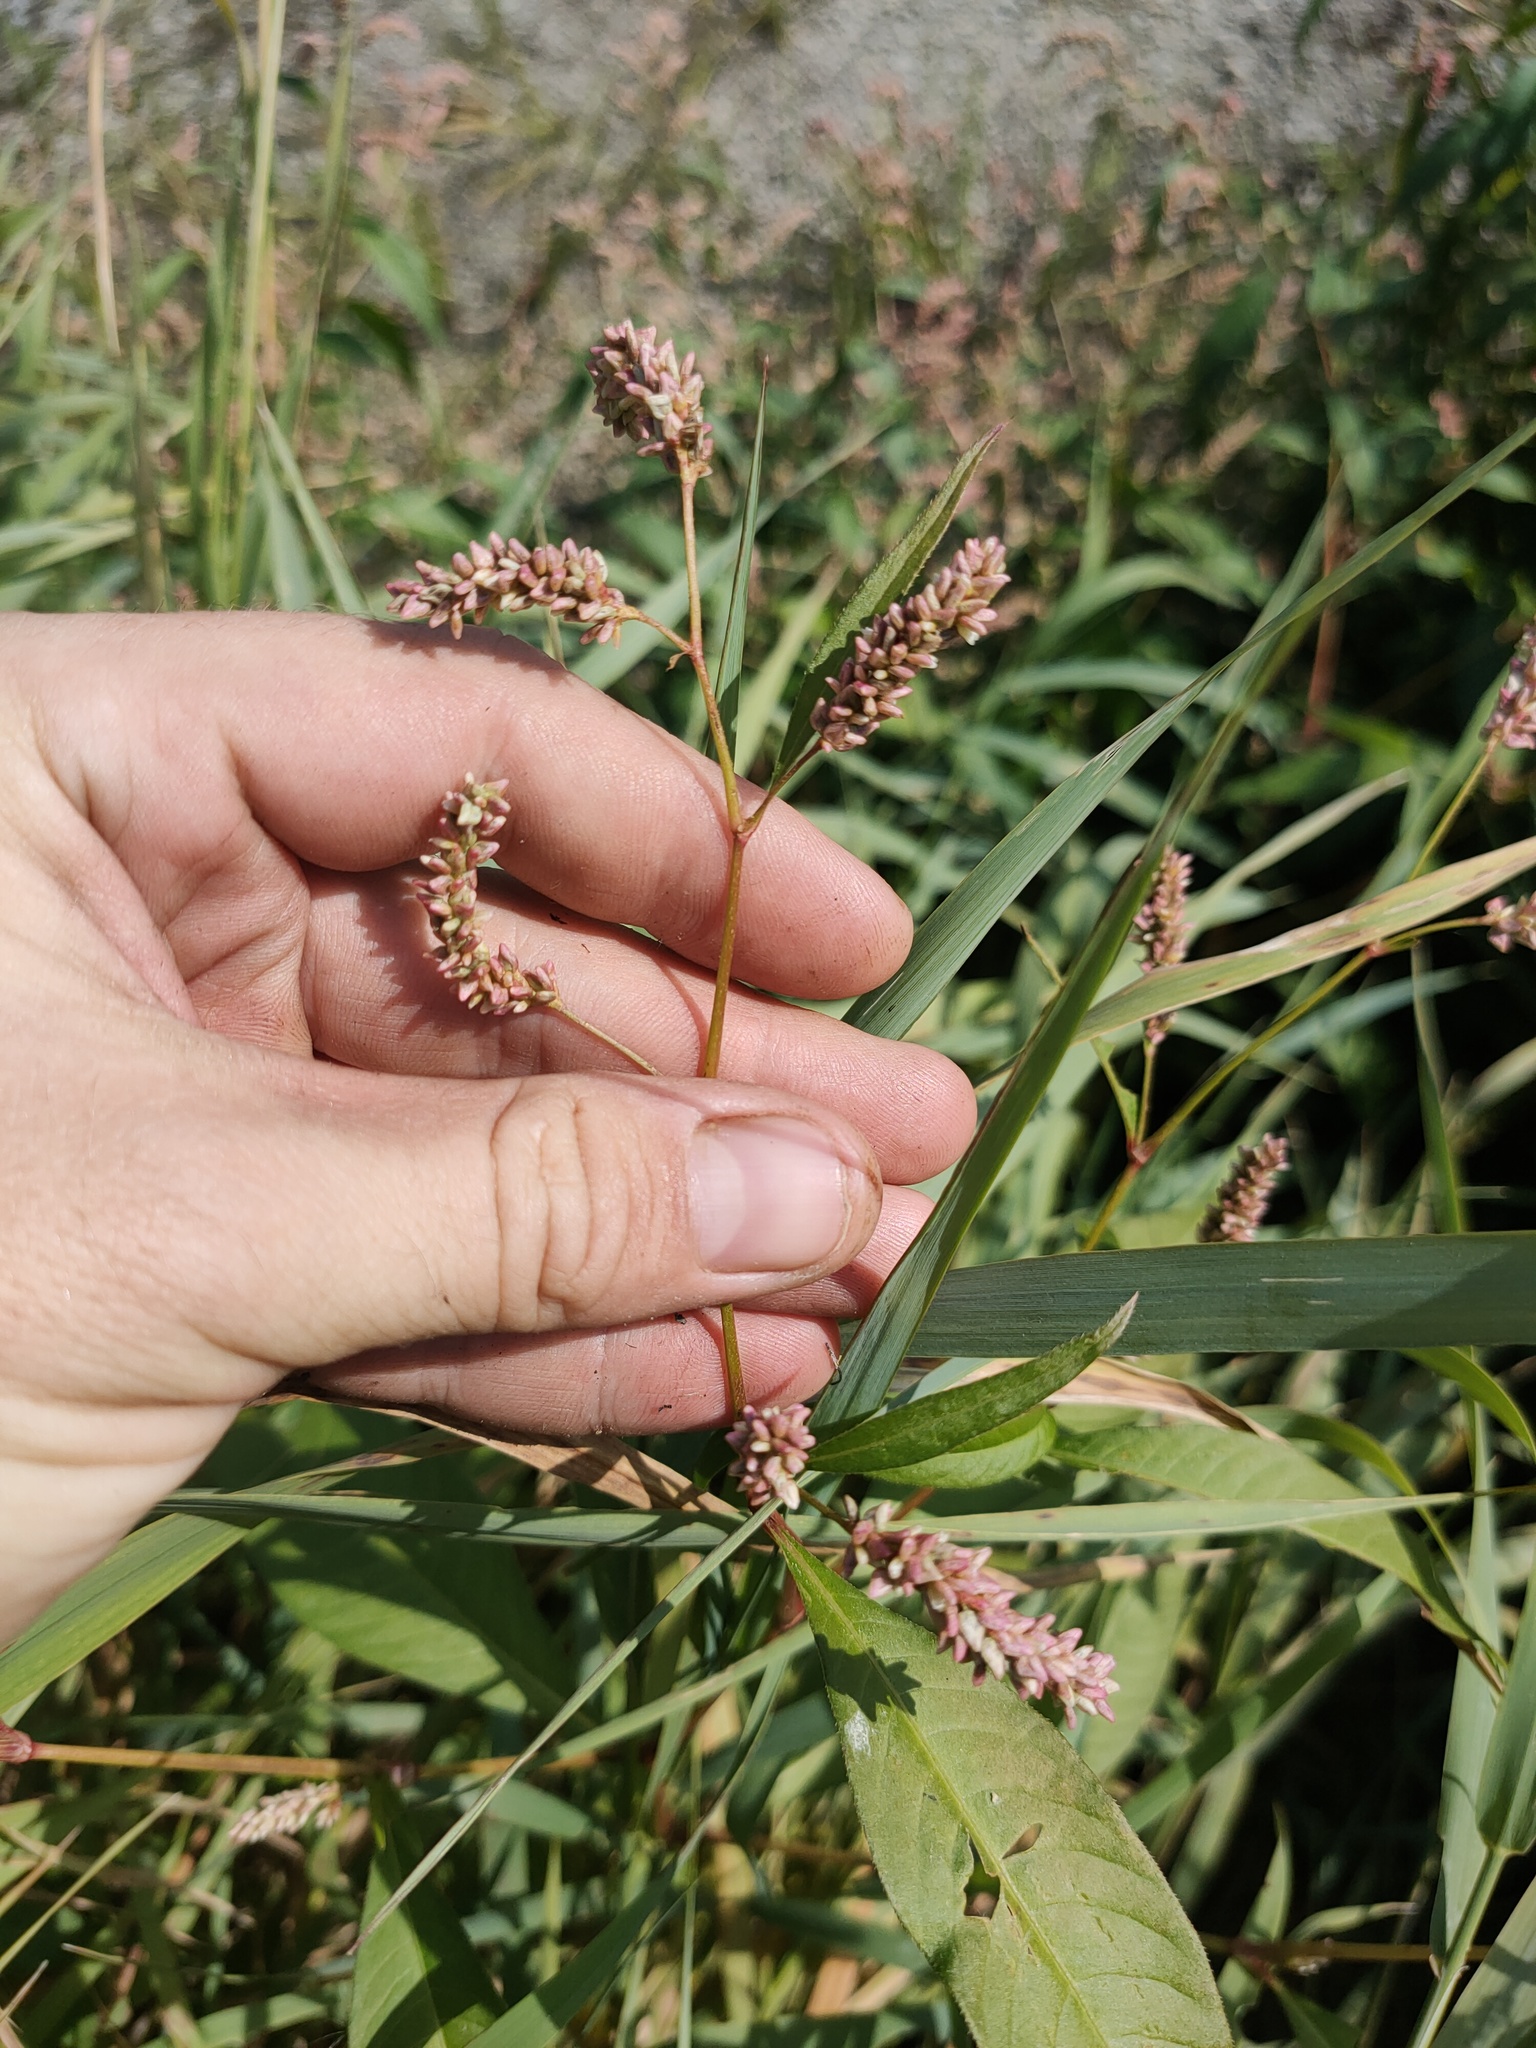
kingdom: Plantae
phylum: Tracheophyta
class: Magnoliopsida
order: Caryophyllales
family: Polygonaceae
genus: Persicaria
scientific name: Persicaria lapathifolia
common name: Curlytop knotweed
